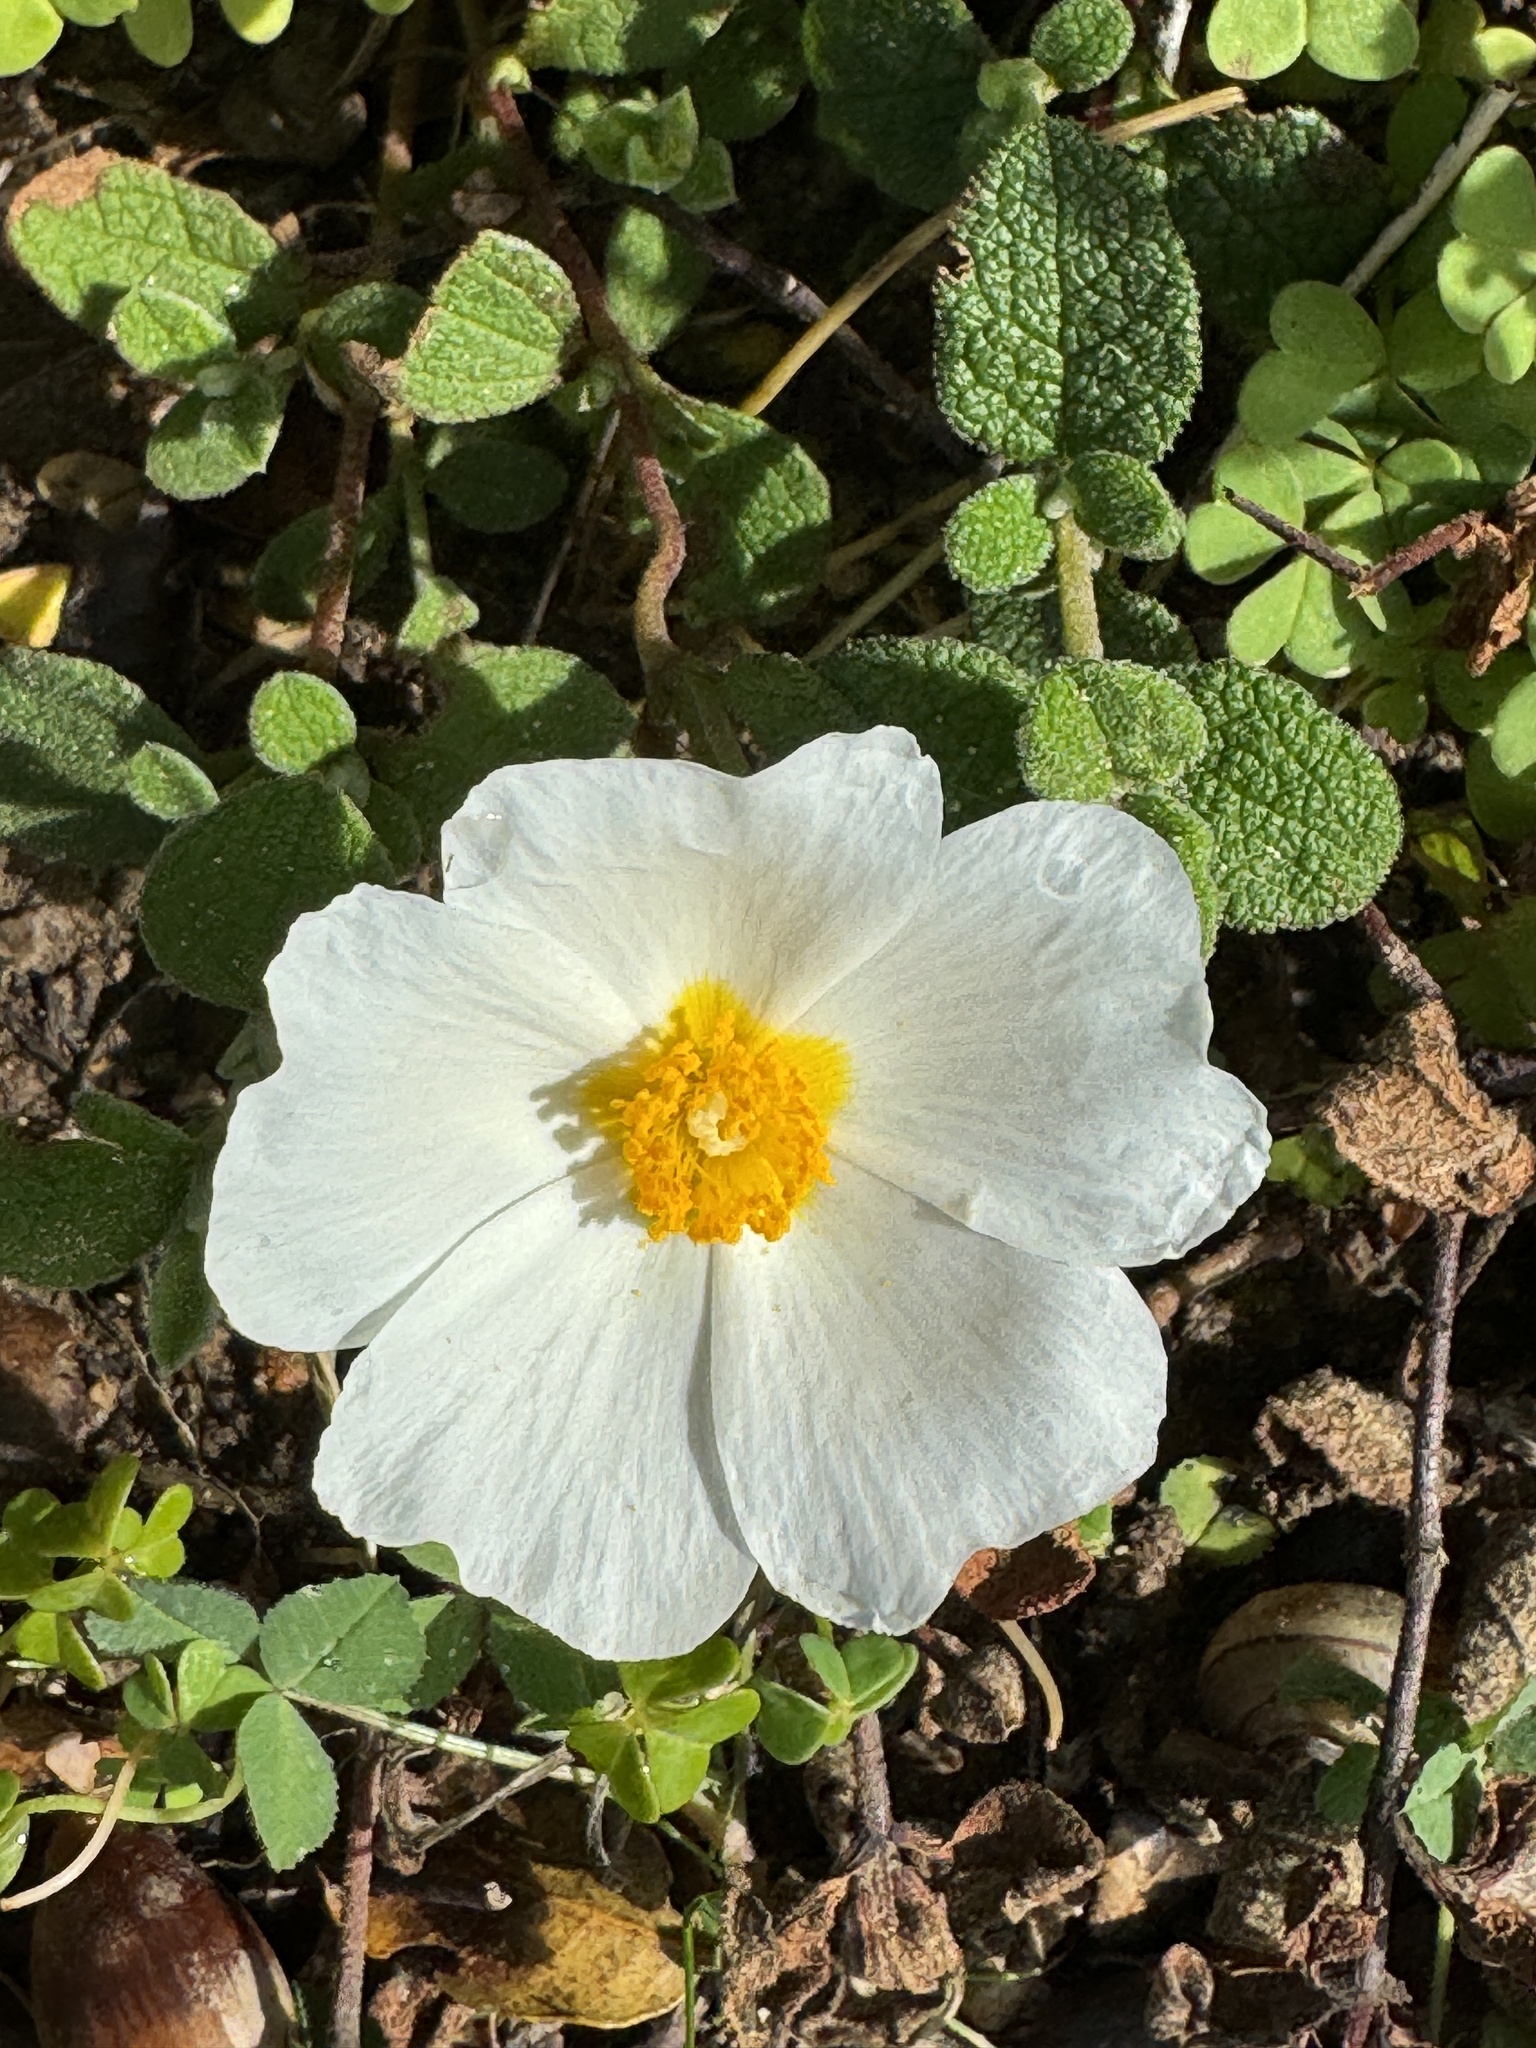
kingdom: Plantae
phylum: Tracheophyta
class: Magnoliopsida
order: Malvales
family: Cistaceae
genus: Cistus
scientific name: Cistus salviifolius
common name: Salvia cistus
